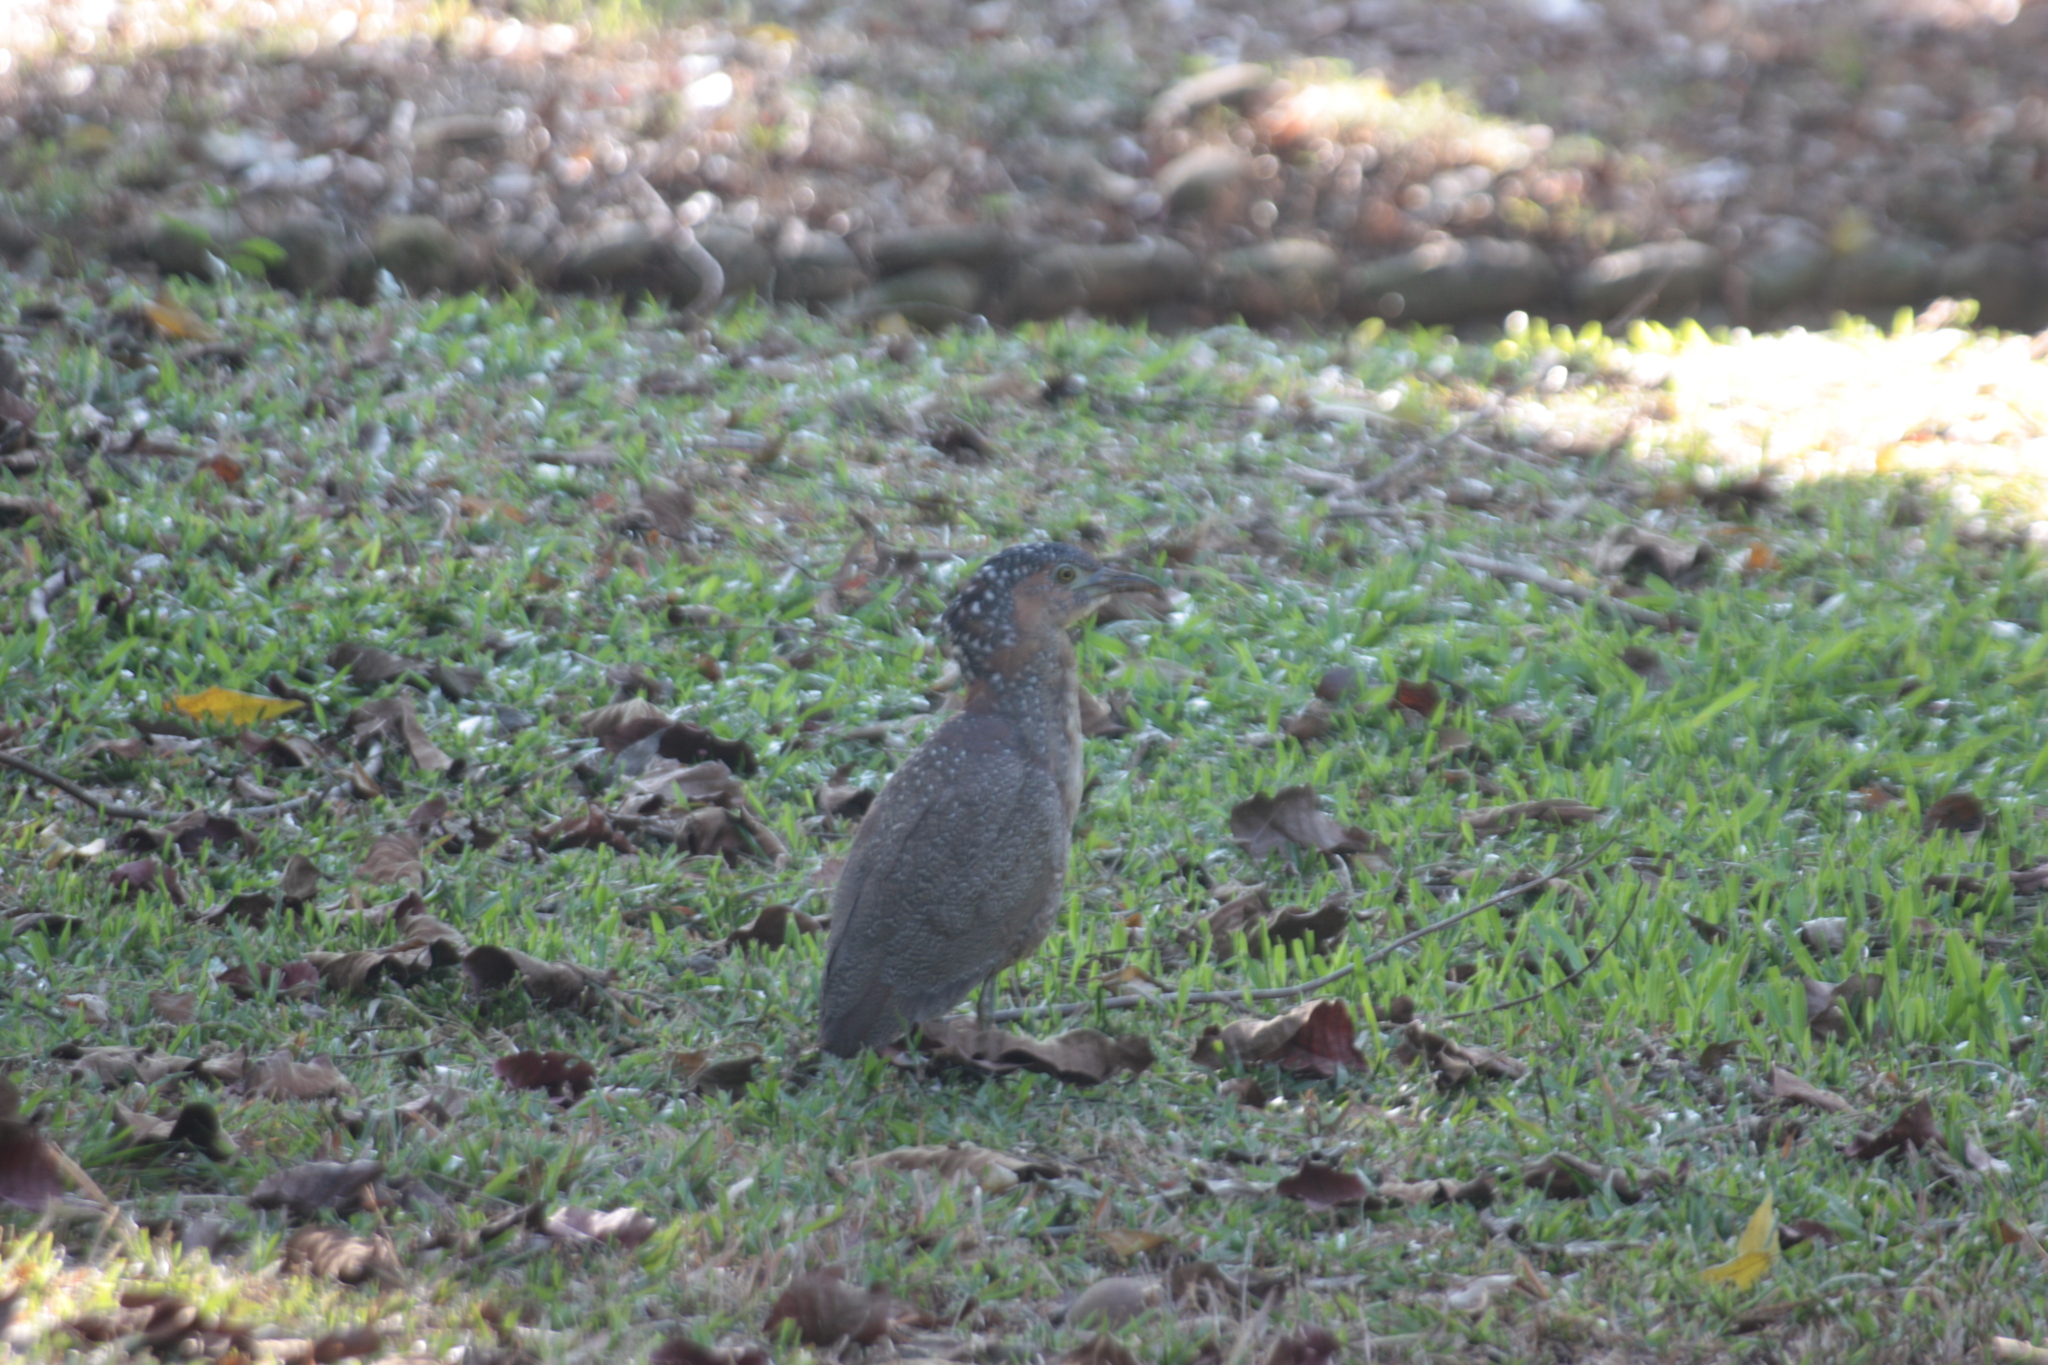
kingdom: Animalia
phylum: Chordata
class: Aves
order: Pelecaniformes
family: Ardeidae
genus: Gorsachius
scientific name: Gorsachius melanolophus
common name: Malayan night heron
